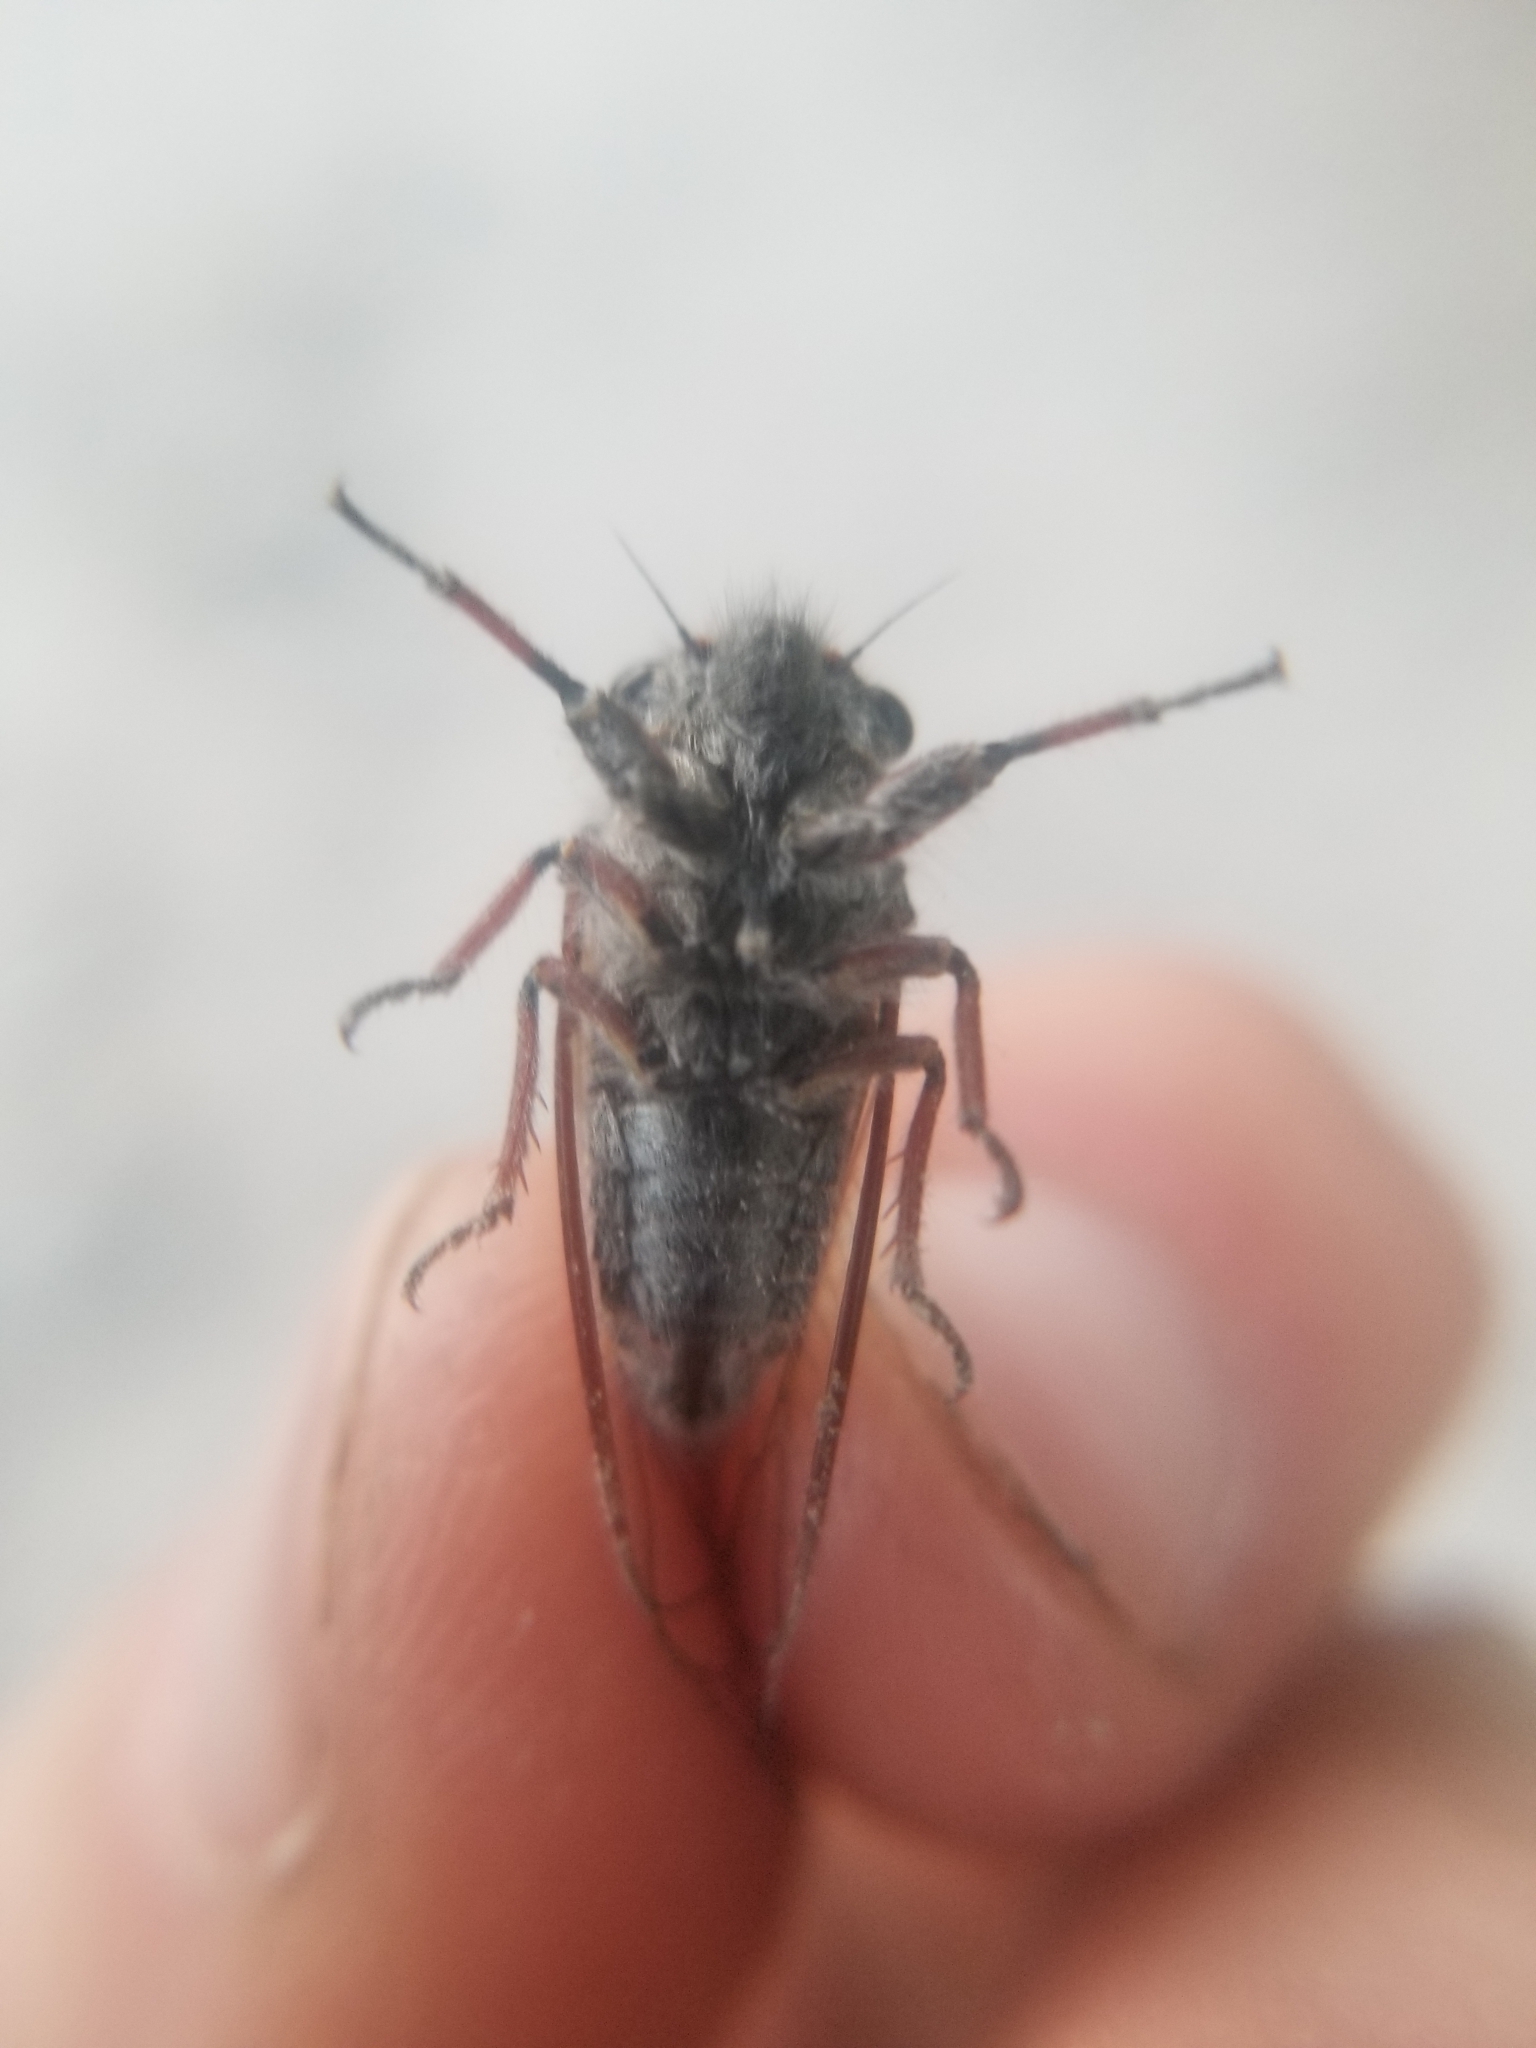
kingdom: Animalia
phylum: Arthropoda
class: Insecta
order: Hemiptera
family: Cicadidae
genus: Platypedia
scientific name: Platypedia minor
